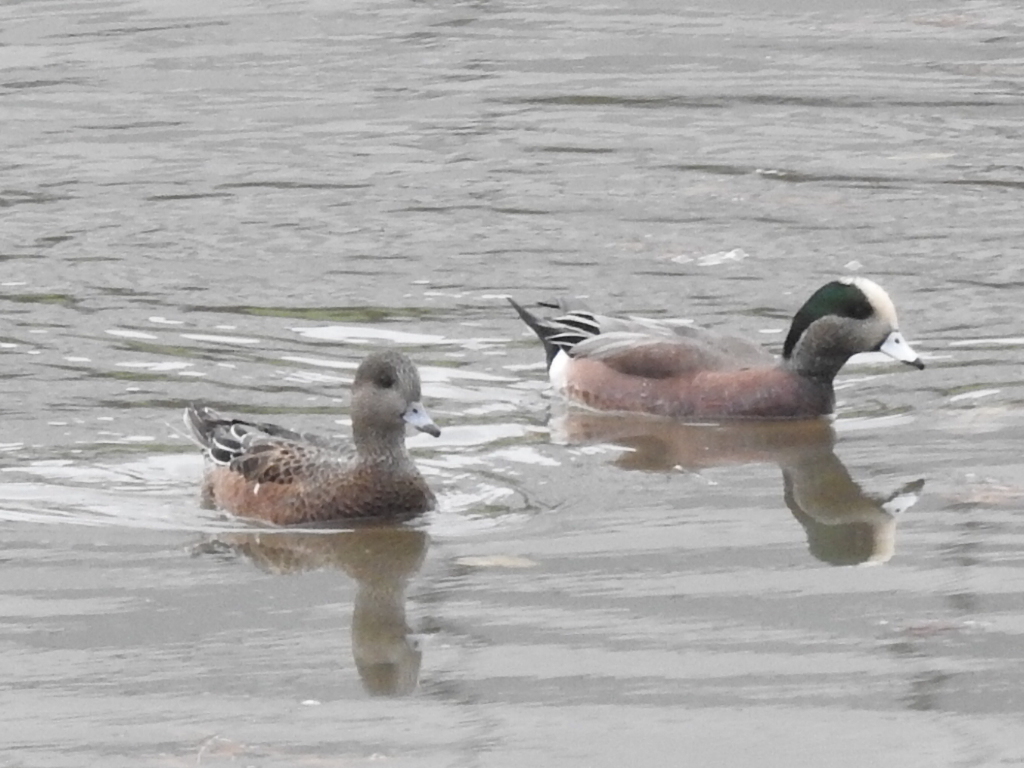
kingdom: Animalia
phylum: Chordata
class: Aves
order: Anseriformes
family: Anatidae
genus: Mareca
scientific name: Mareca americana
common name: American wigeon
